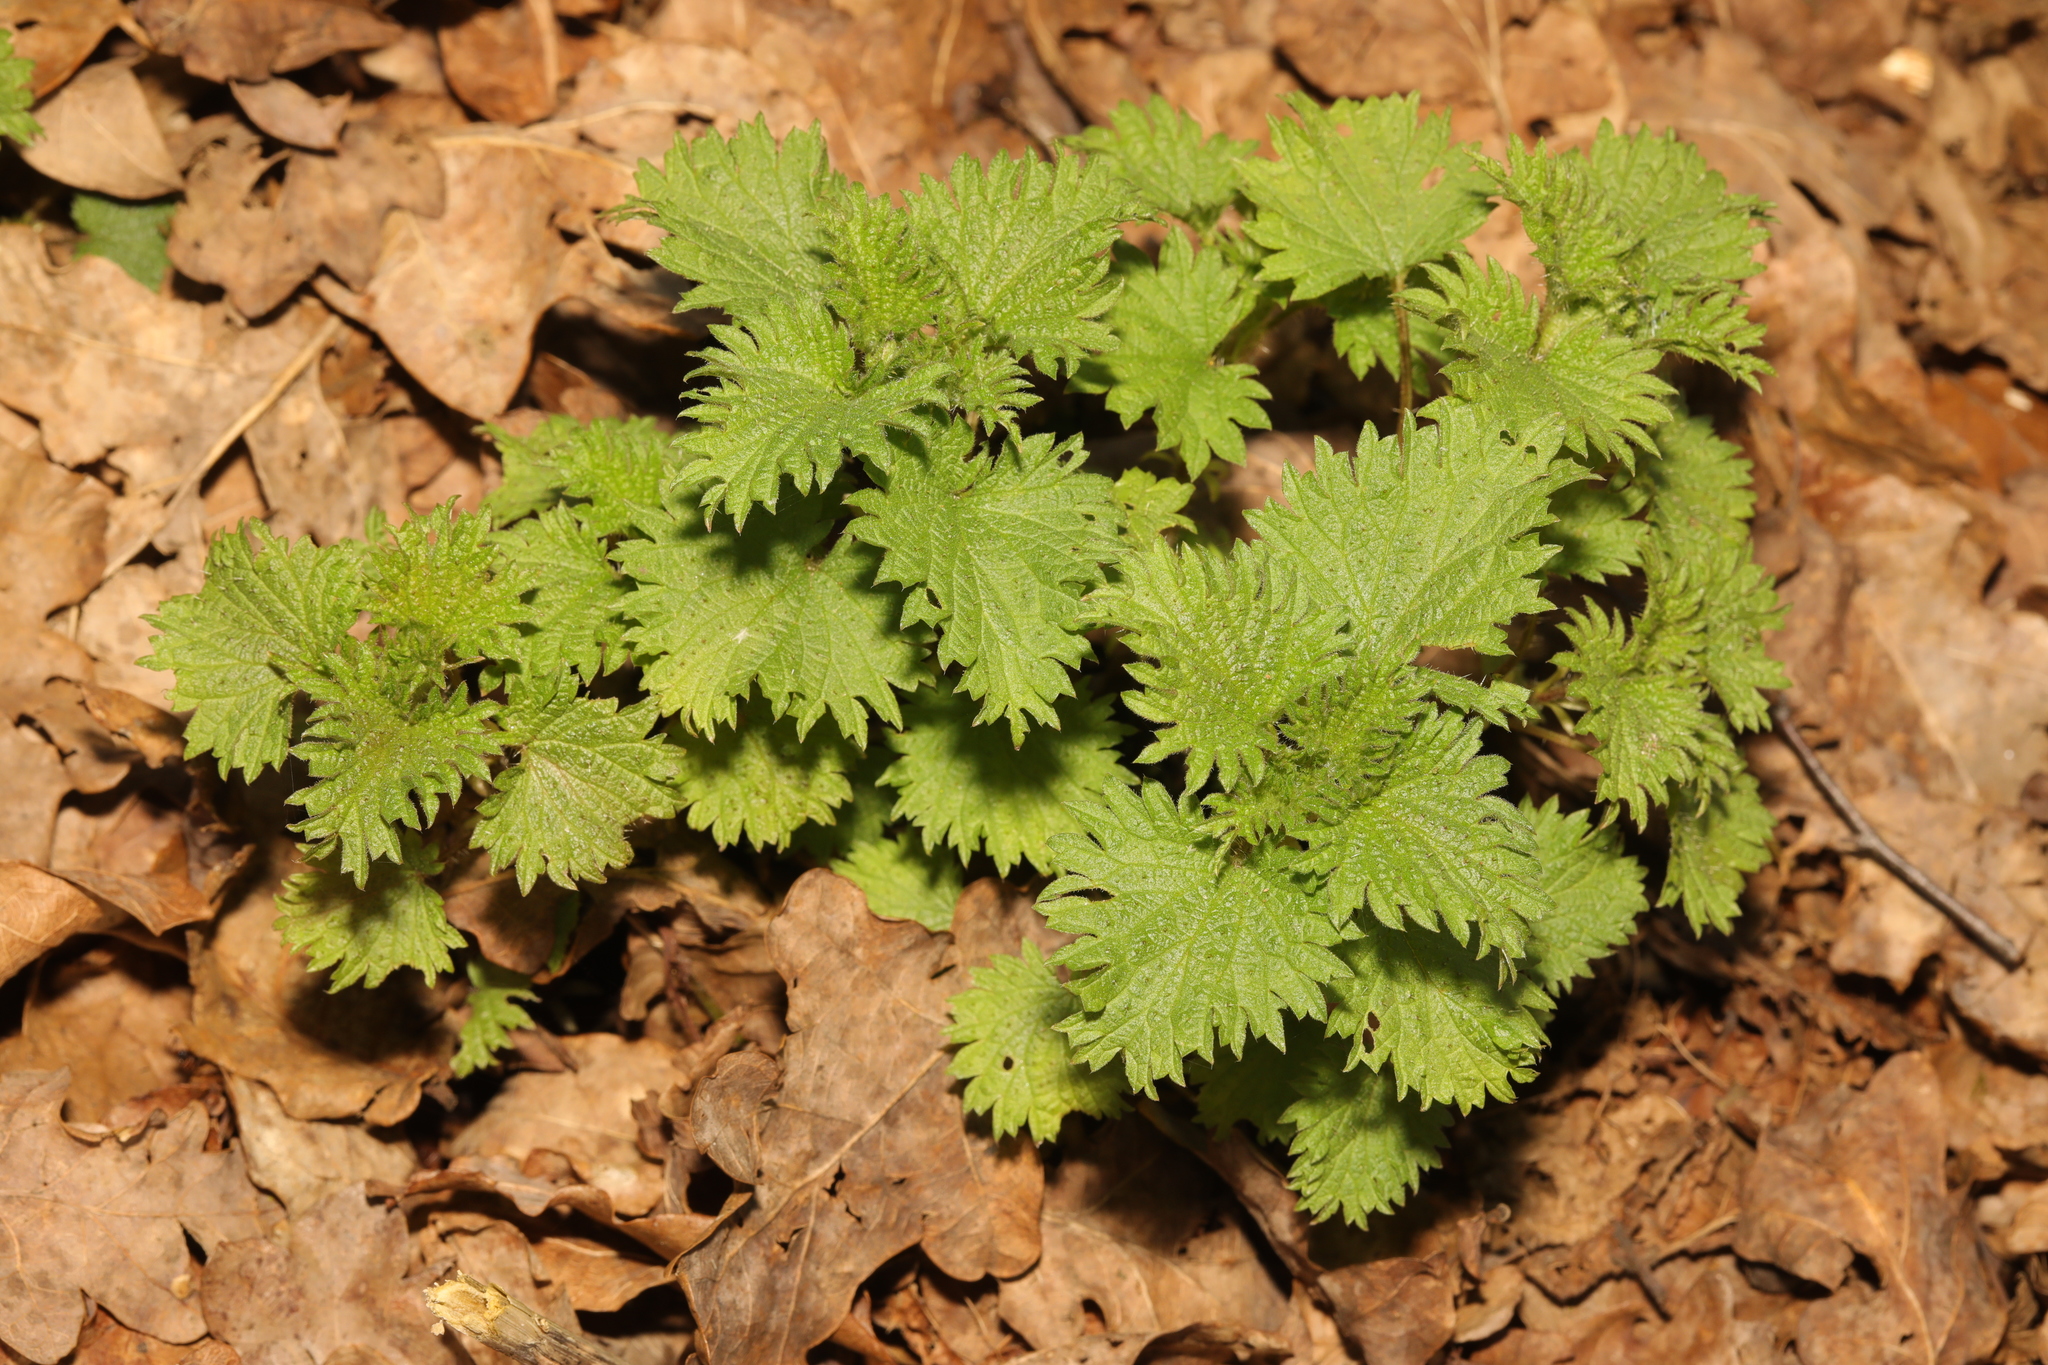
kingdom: Plantae
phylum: Tracheophyta
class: Magnoliopsida
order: Rosales
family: Urticaceae
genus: Urtica
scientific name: Urtica dioica
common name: Common nettle
